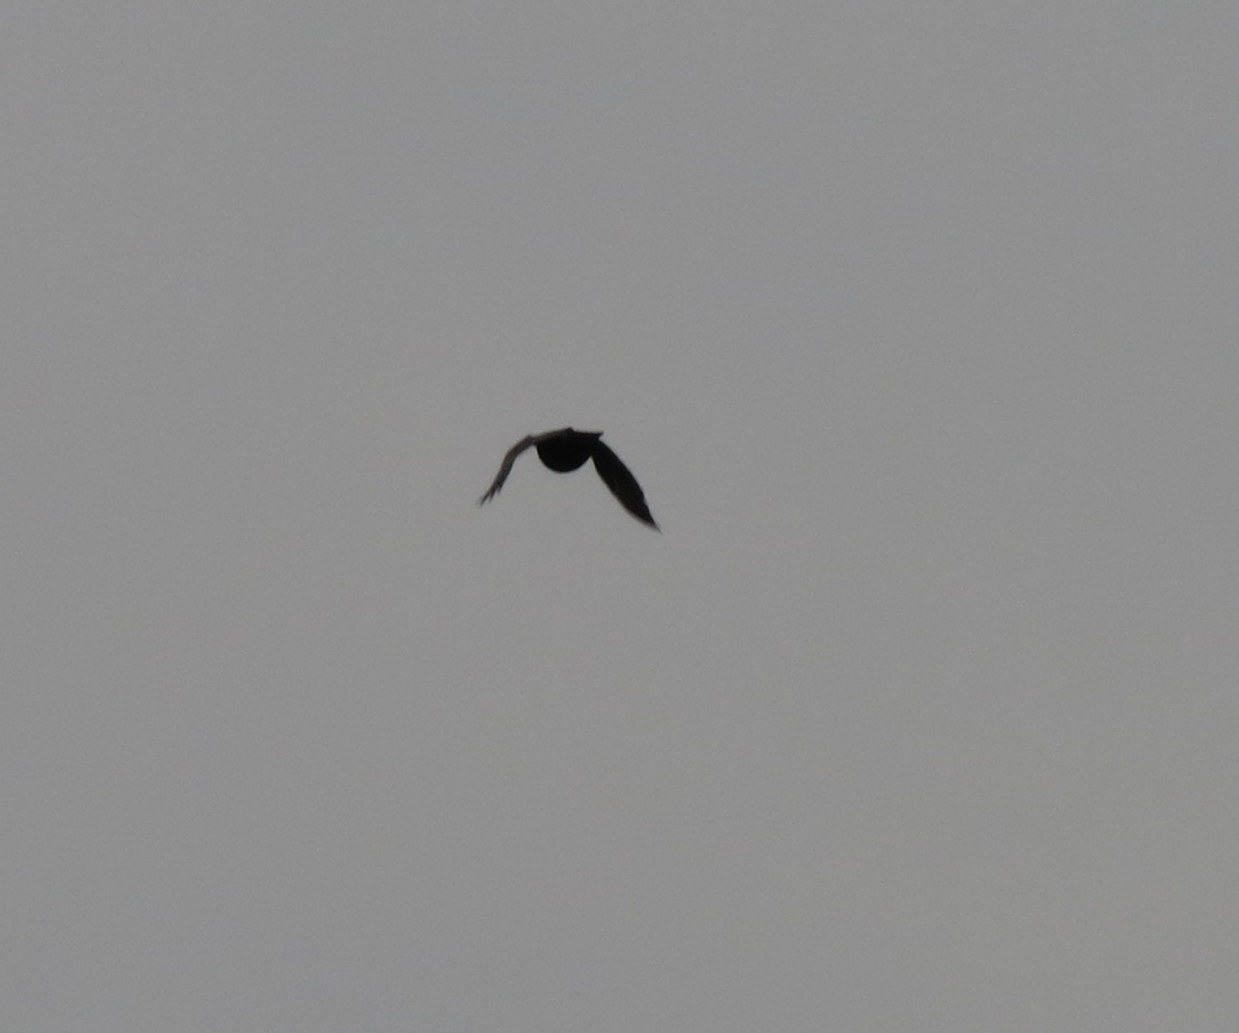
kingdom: Animalia
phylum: Chordata
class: Aves
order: Passeriformes
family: Corvidae
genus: Corvus
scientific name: Corvus brachyrhynchos
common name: American crow
